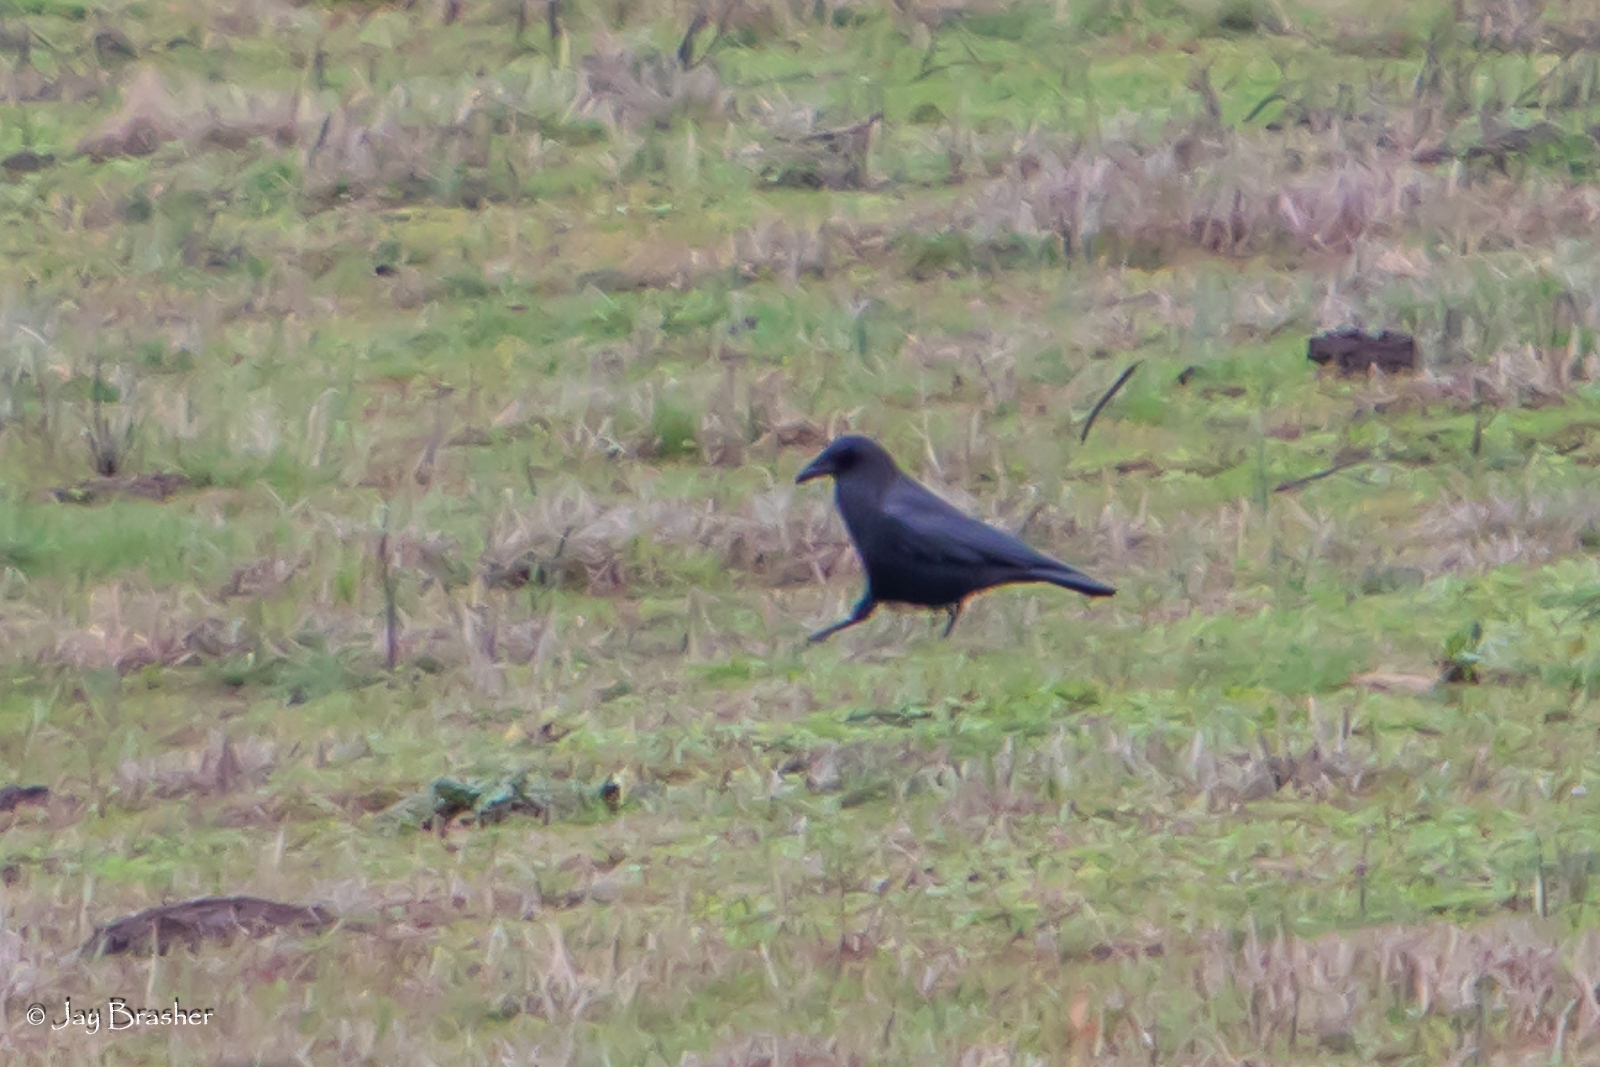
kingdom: Animalia
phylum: Chordata
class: Aves
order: Passeriformes
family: Corvidae
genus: Corvus
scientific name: Corvus brachyrhynchos
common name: American crow
